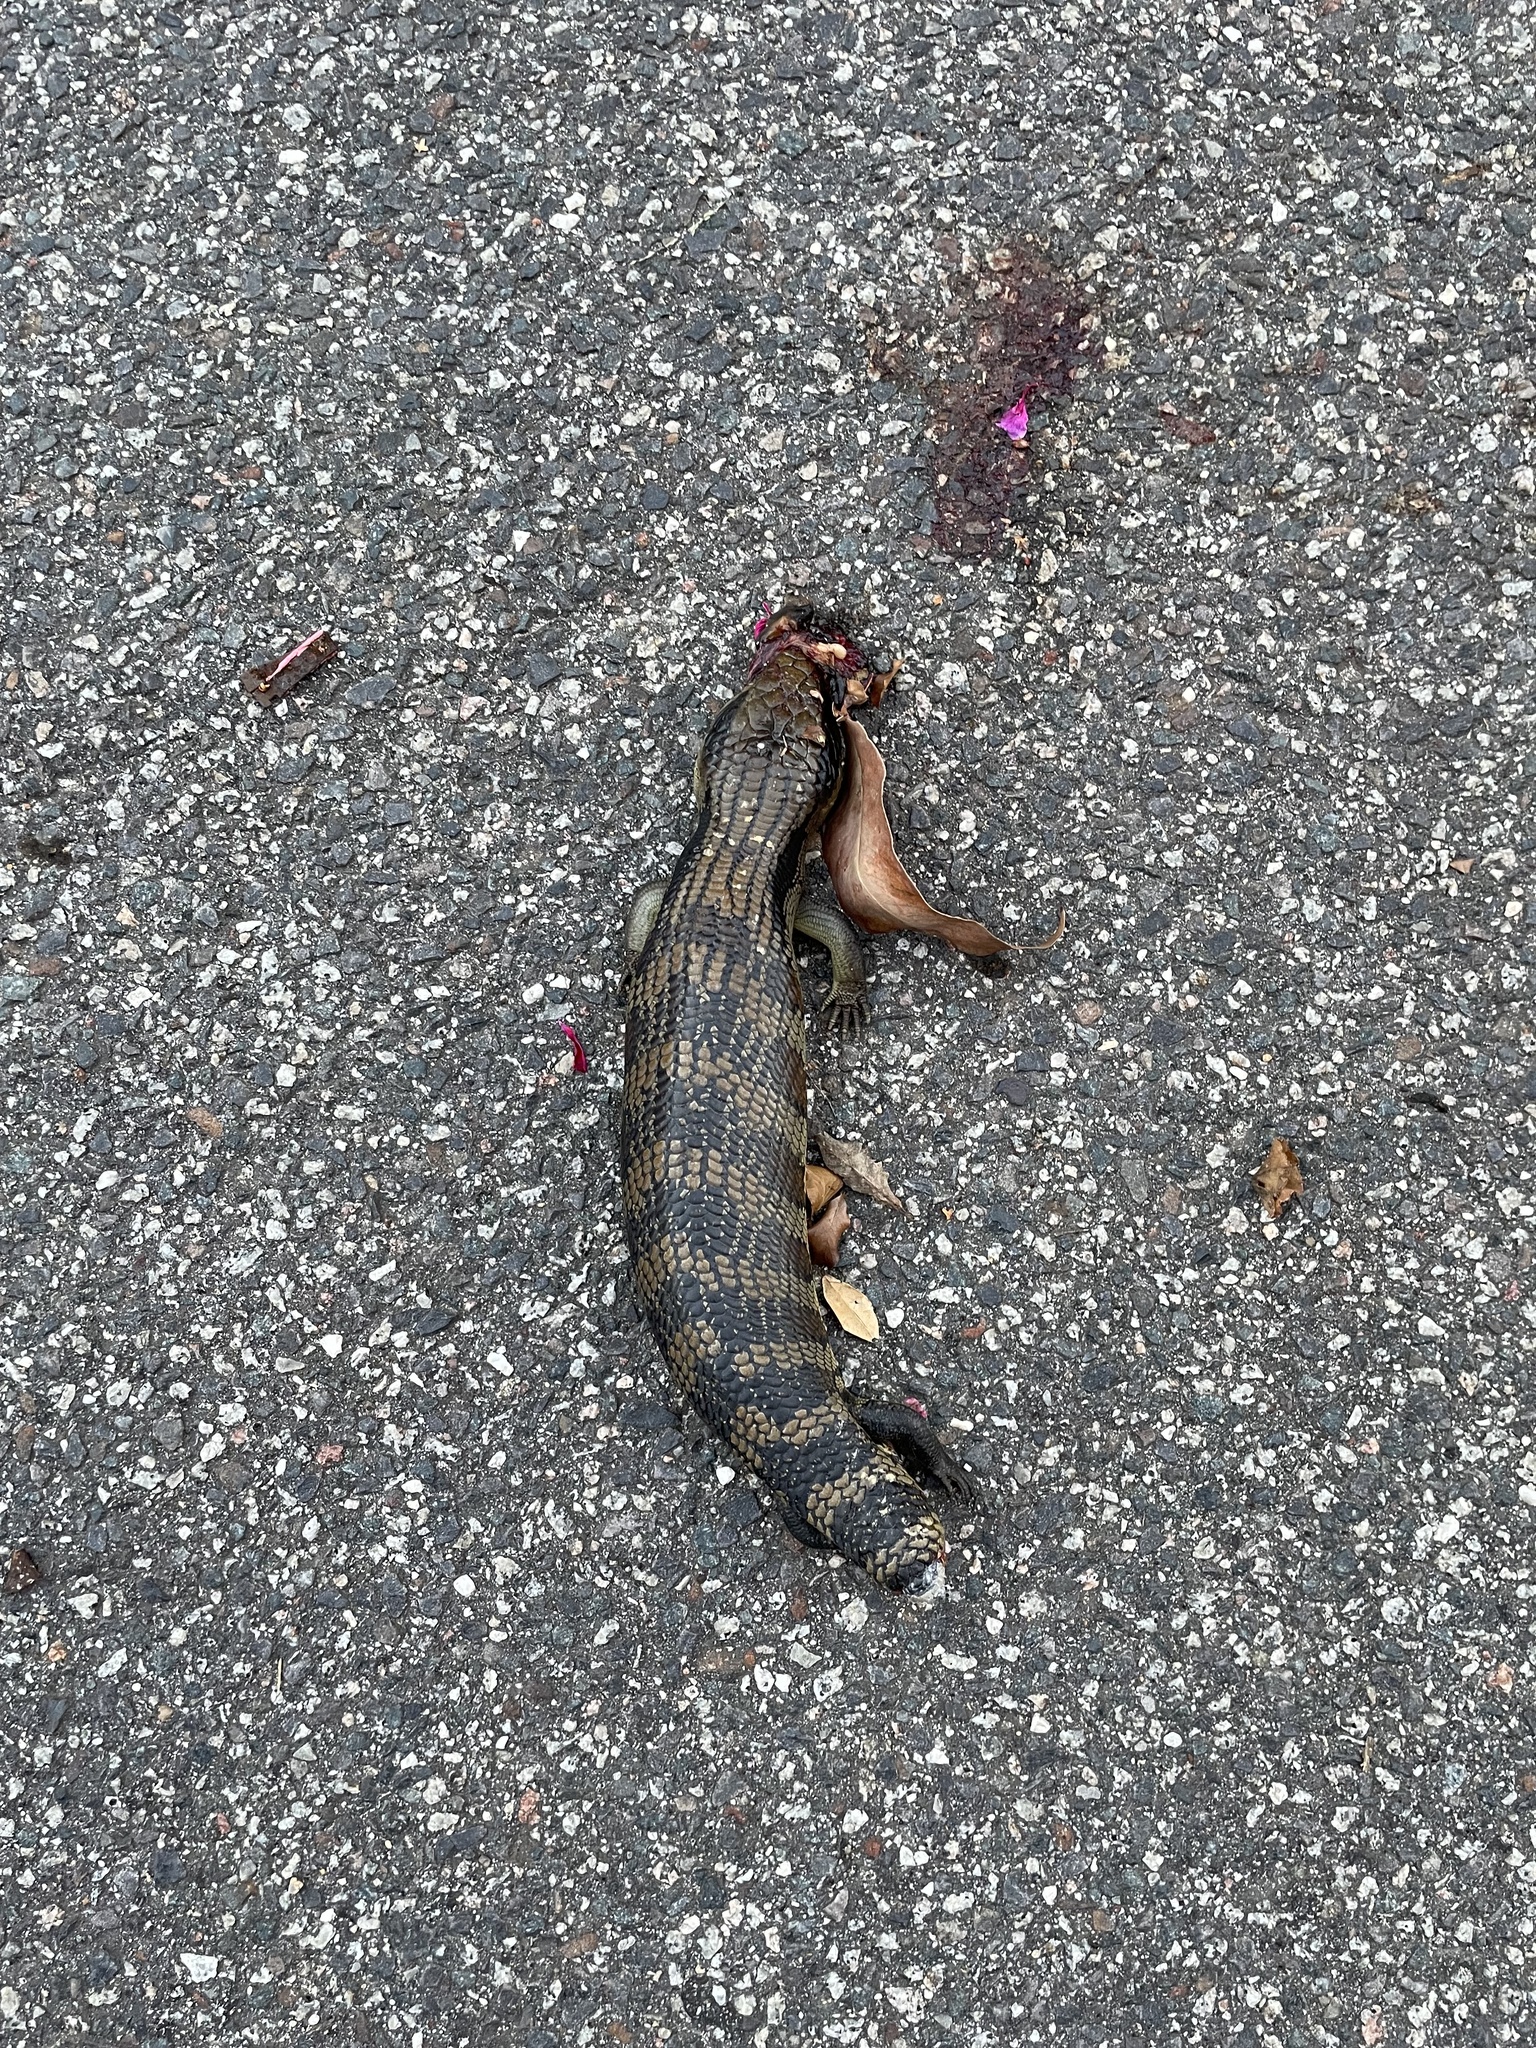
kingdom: Animalia
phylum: Chordata
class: Squamata
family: Scincidae
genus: Tiliqua
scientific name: Tiliqua scincoides
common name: Common bluetongue
